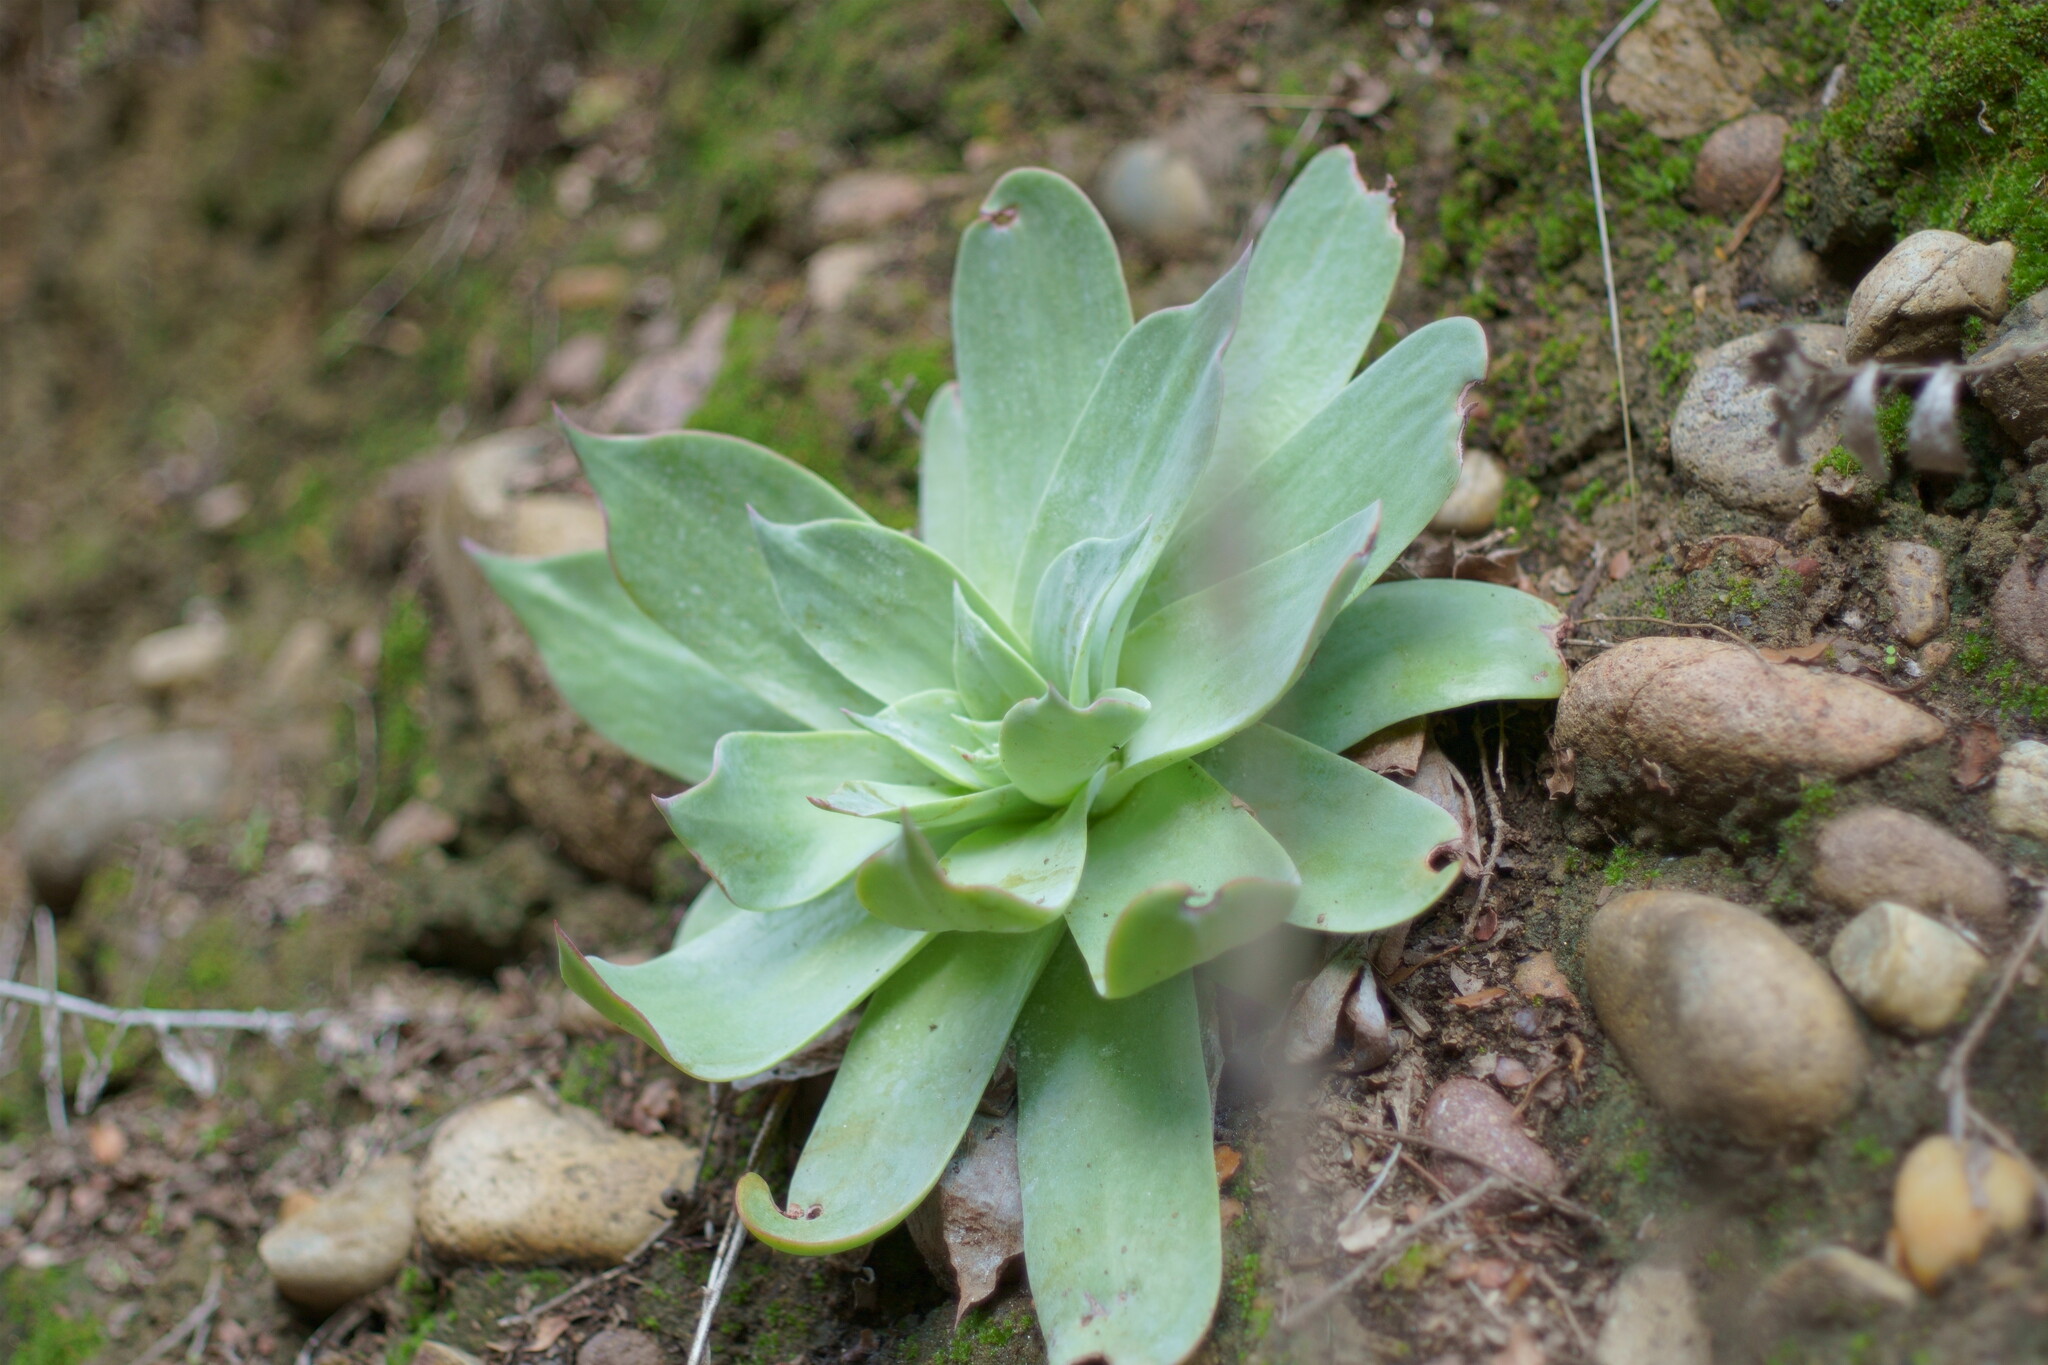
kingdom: Plantae
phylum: Tracheophyta
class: Magnoliopsida
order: Saxifragales
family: Crassulaceae
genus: Dudleya
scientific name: Dudleya pulverulenta
